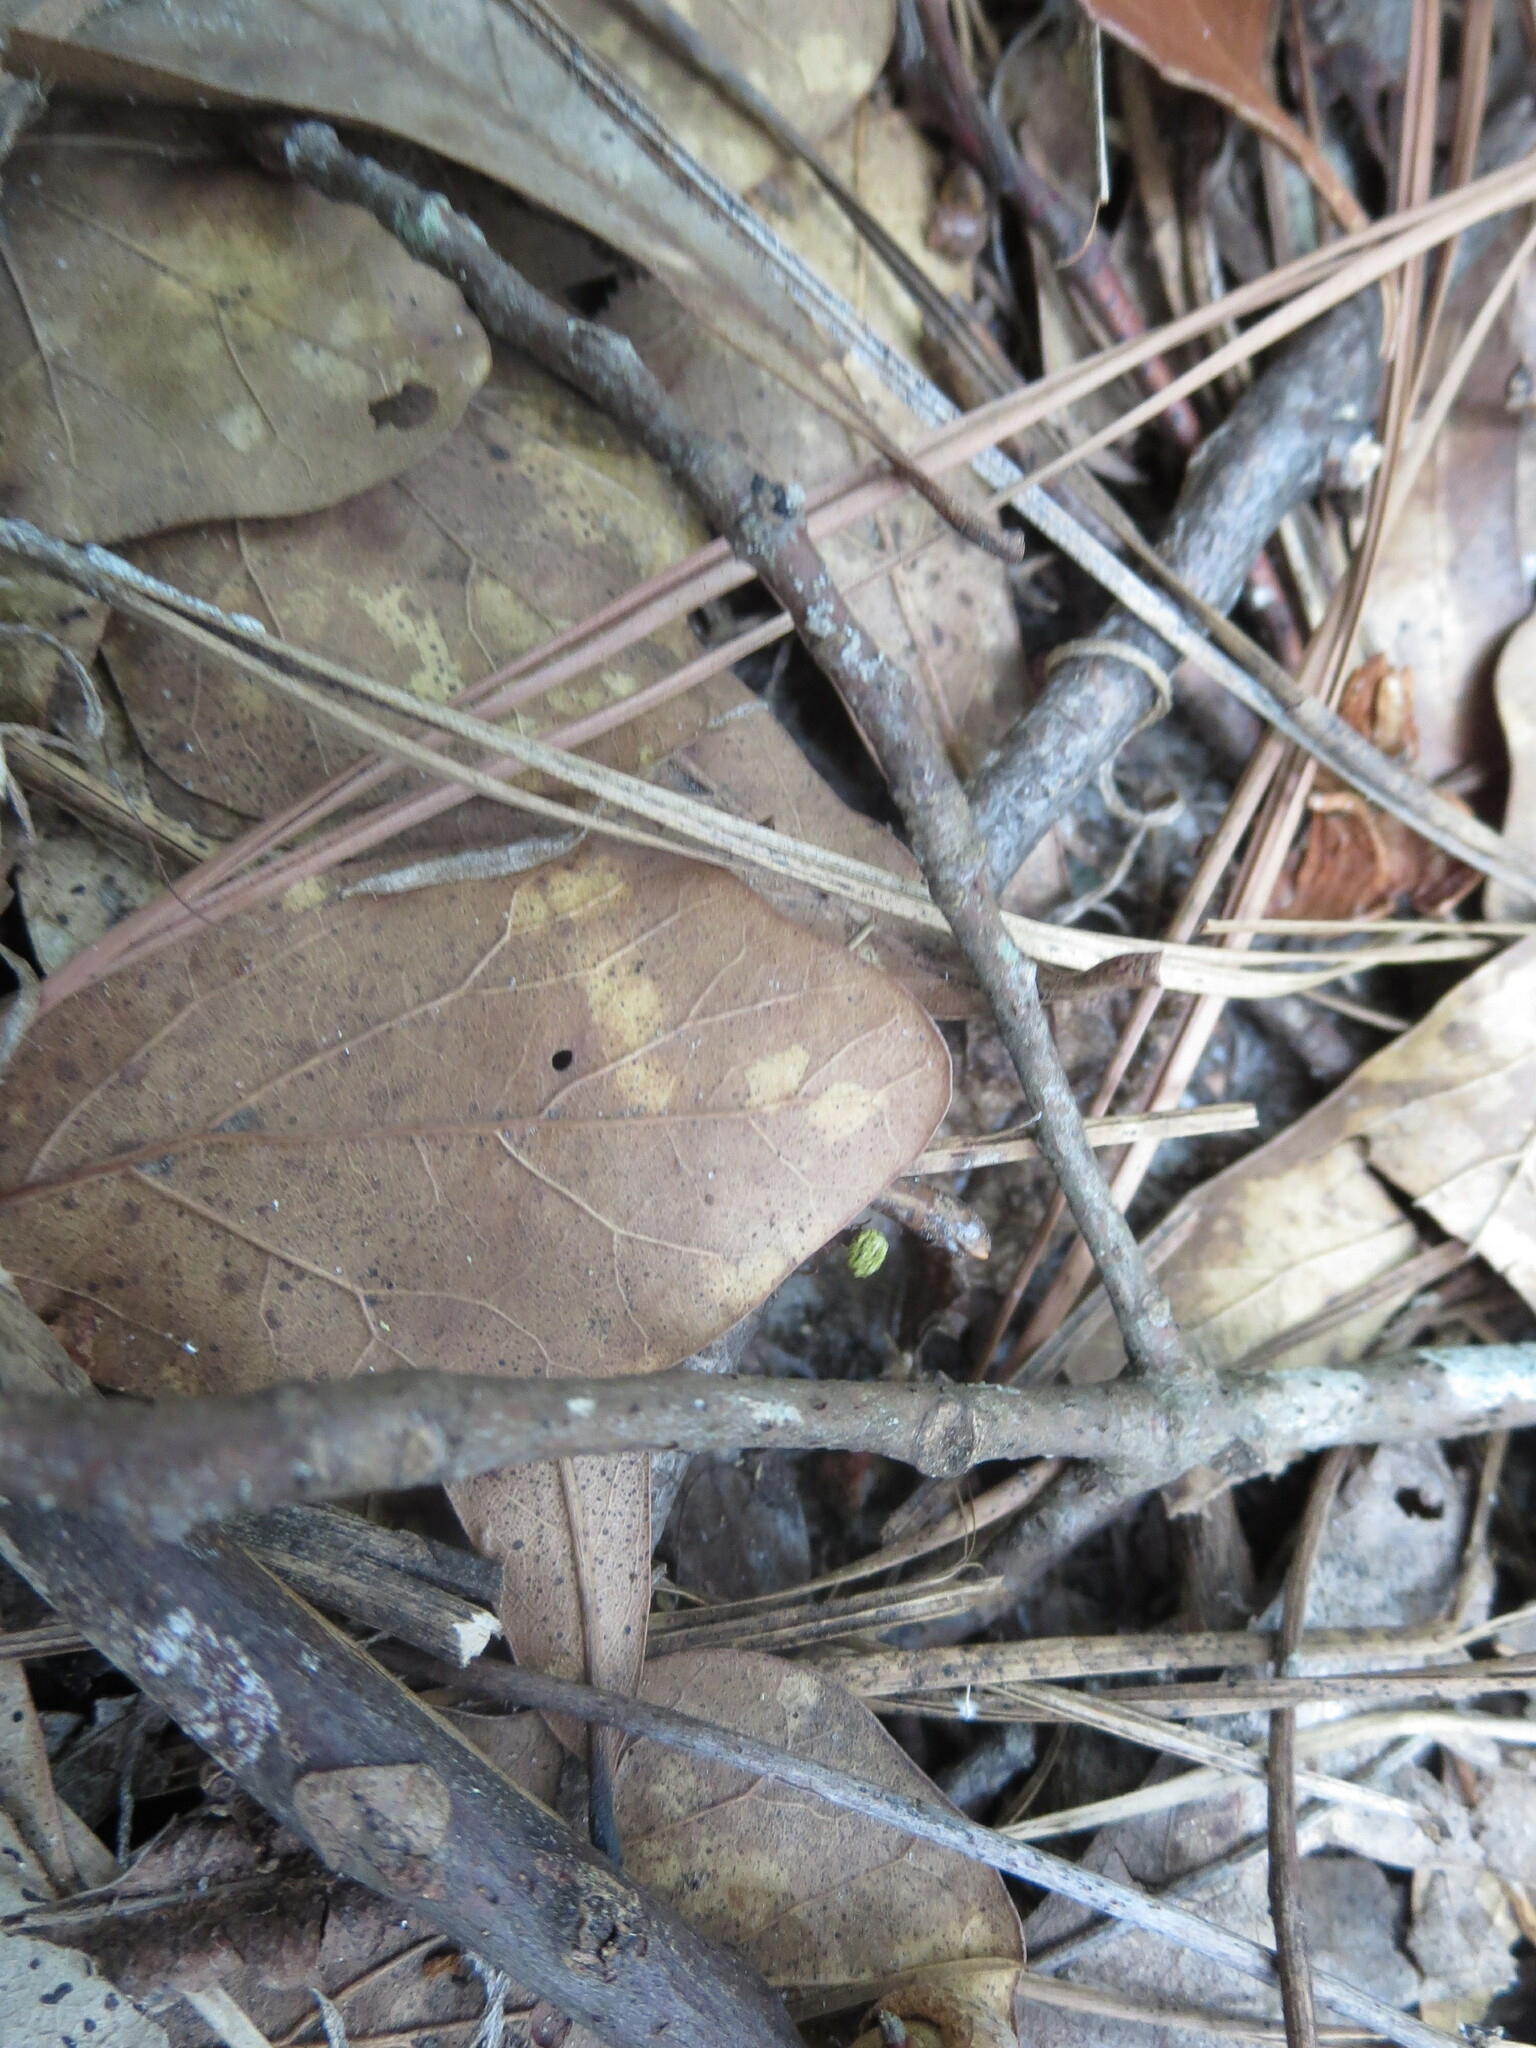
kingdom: Animalia
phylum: Arthropoda
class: Insecta
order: Hymenoptera
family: Formicidae
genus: Trachymyrmex
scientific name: Trachymyrmex septentrionalis
